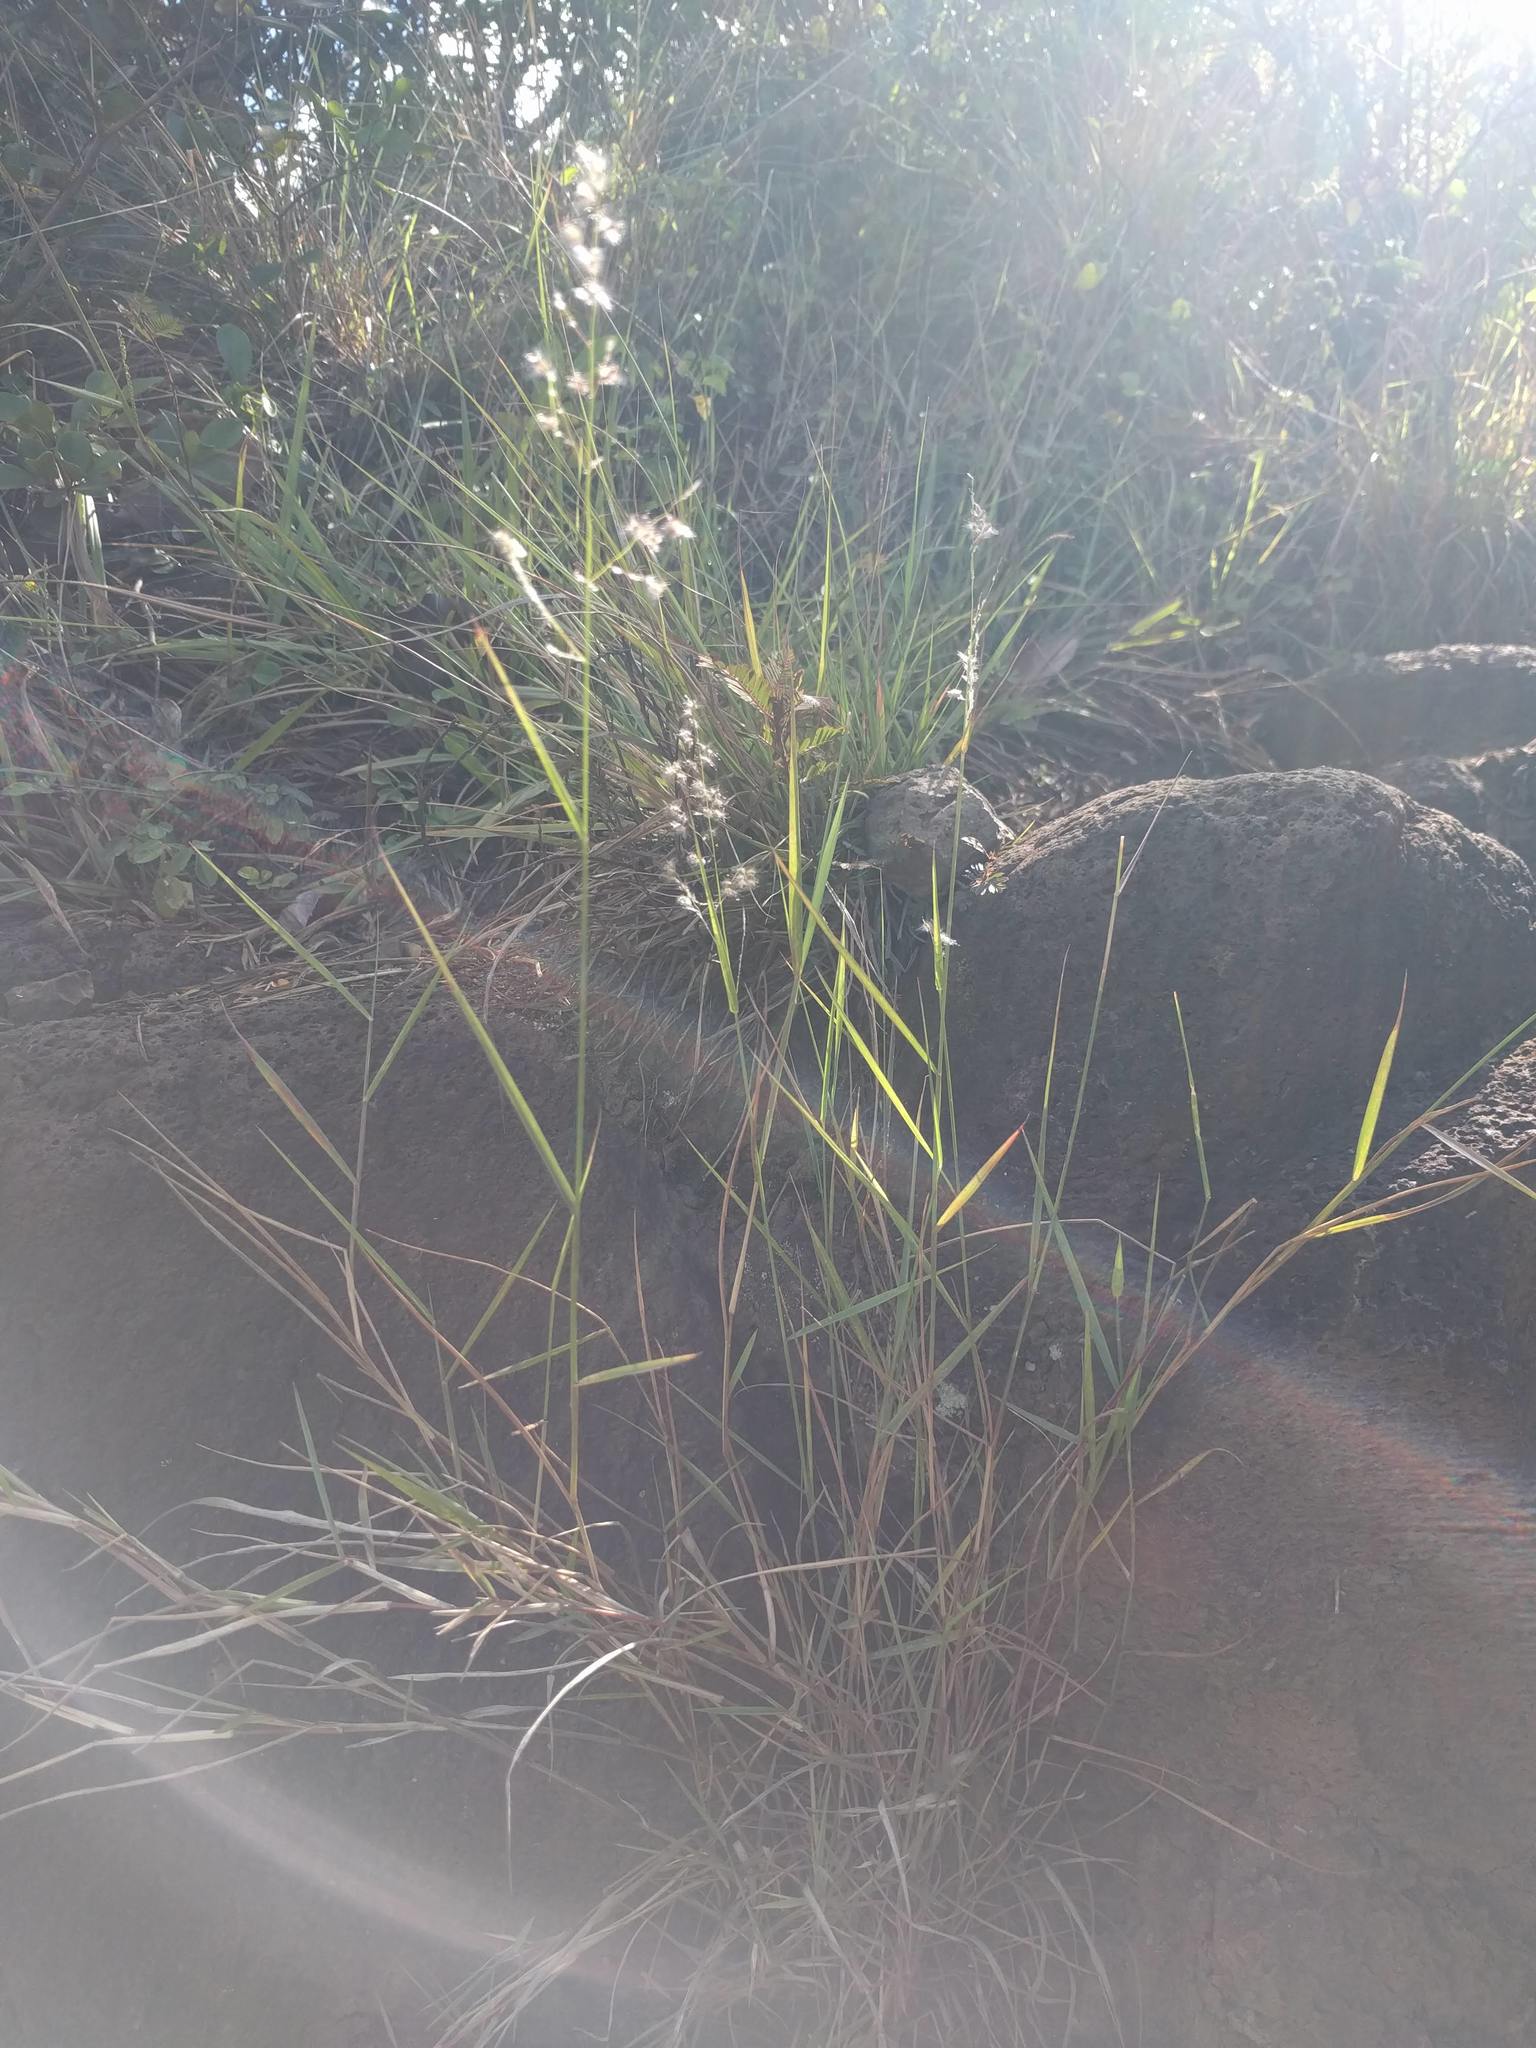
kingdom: Plantae
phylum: Tracheophyta
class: Liliopsida
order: Poales
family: Poaceae
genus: Melinis
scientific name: Melinis repens
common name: Rose natal grass
